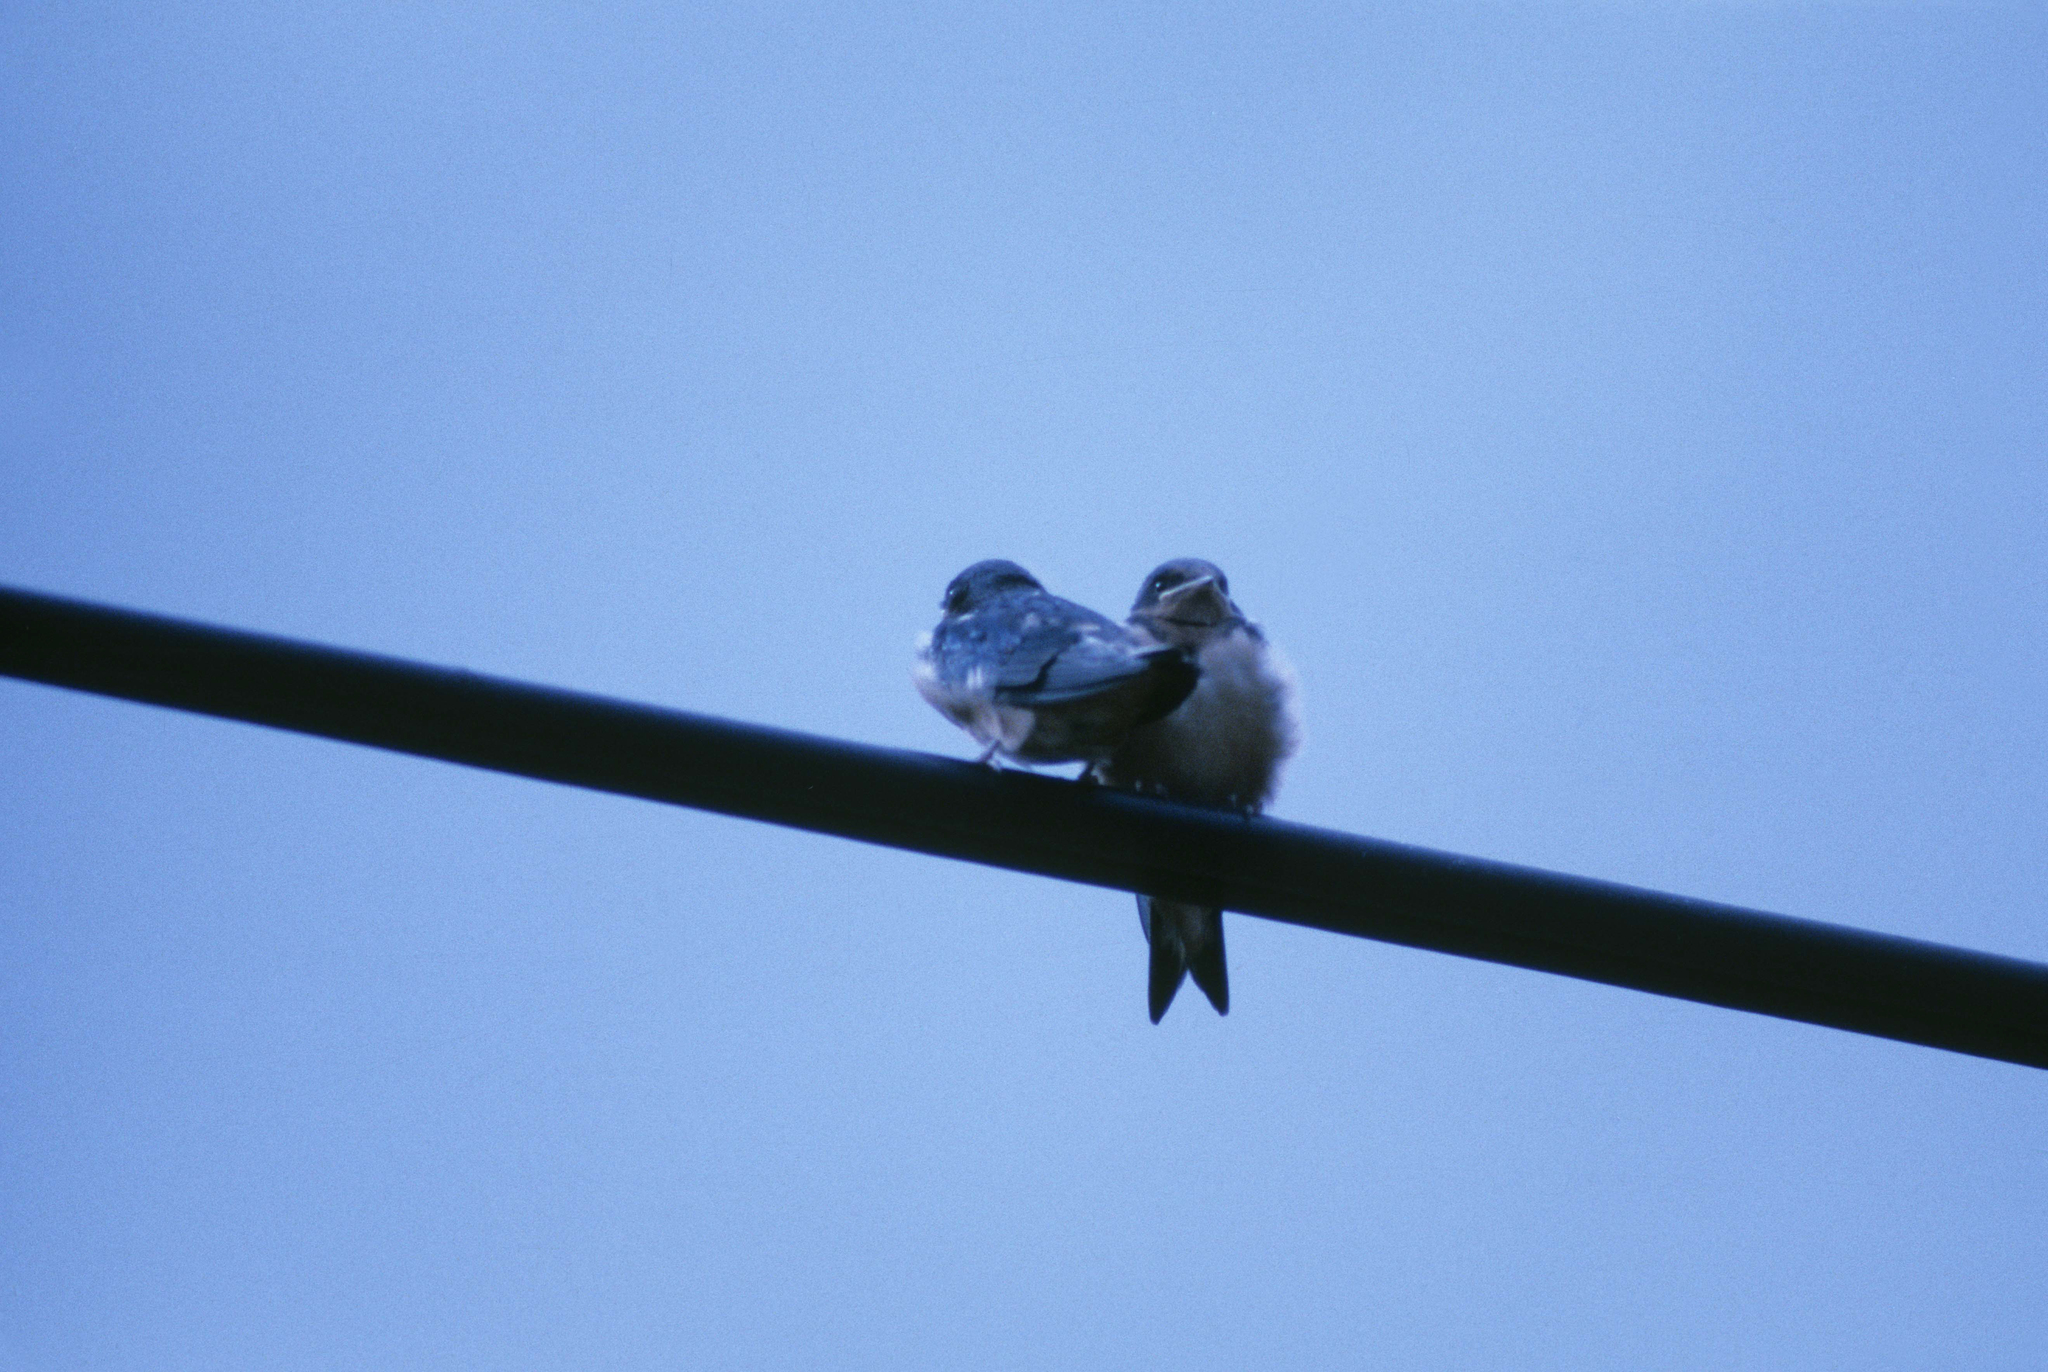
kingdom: Animalia
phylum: Chordata
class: Aves
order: Passeriformes
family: Hirundinidae
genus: Hirundo
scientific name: Hirundo rustica
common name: Barn swallow
